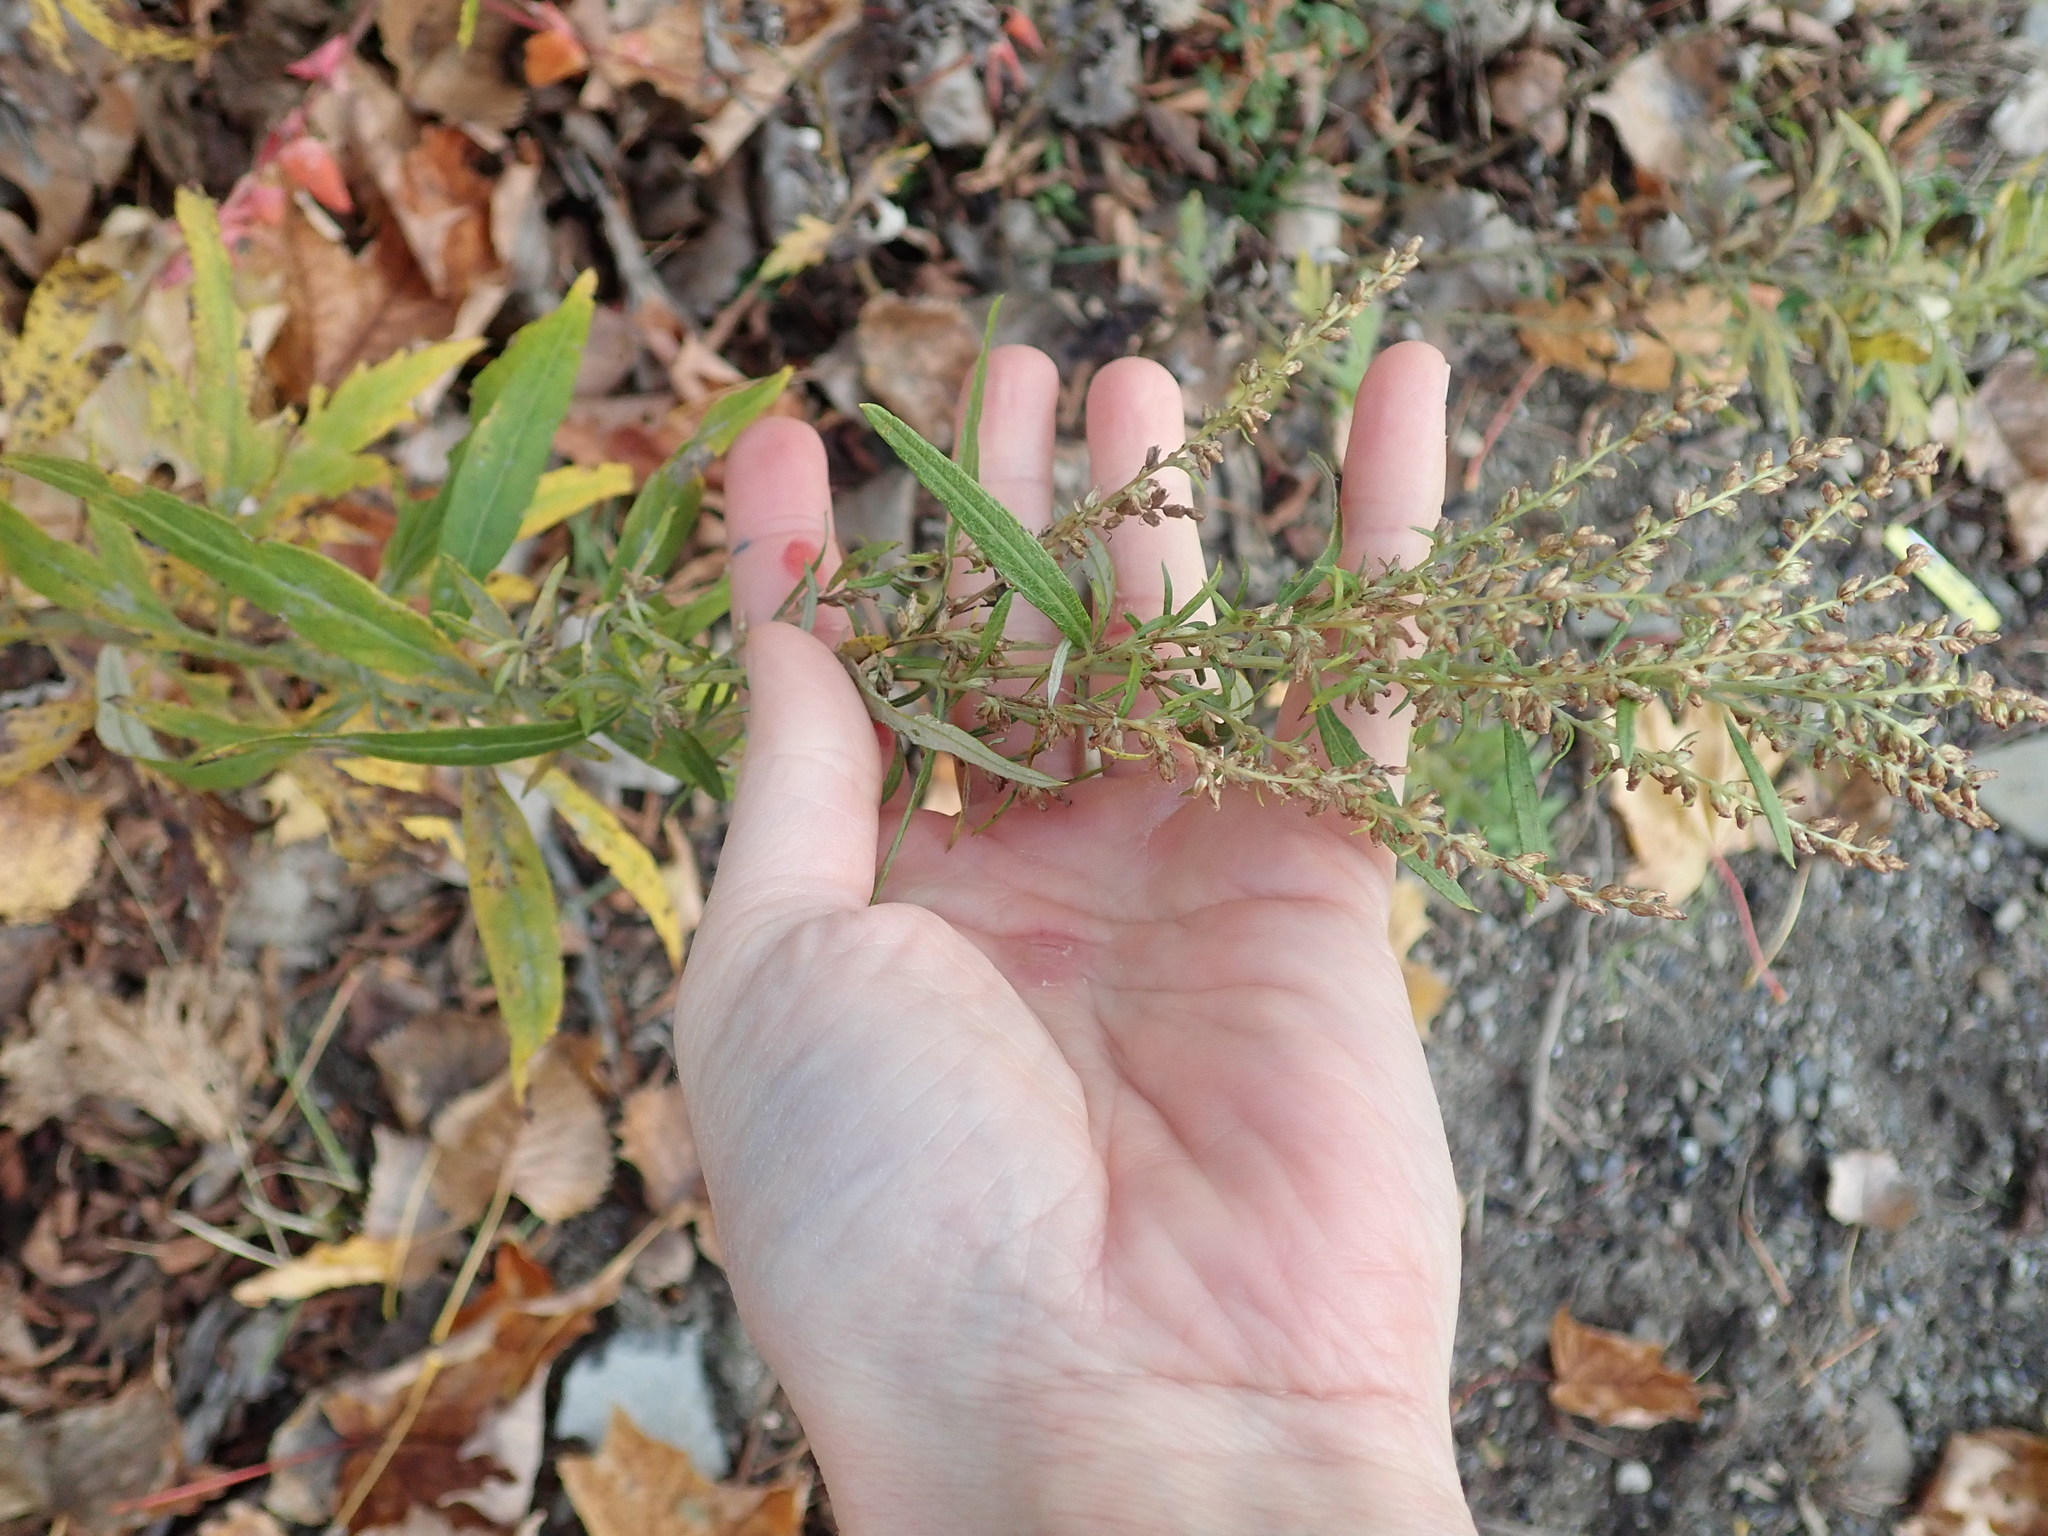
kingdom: Plantae
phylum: Tracheophyta
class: Magnoliopsida
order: Asterales
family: Asteraceae
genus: Artemisia
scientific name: Artemisia vulgaris
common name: Mugwort
